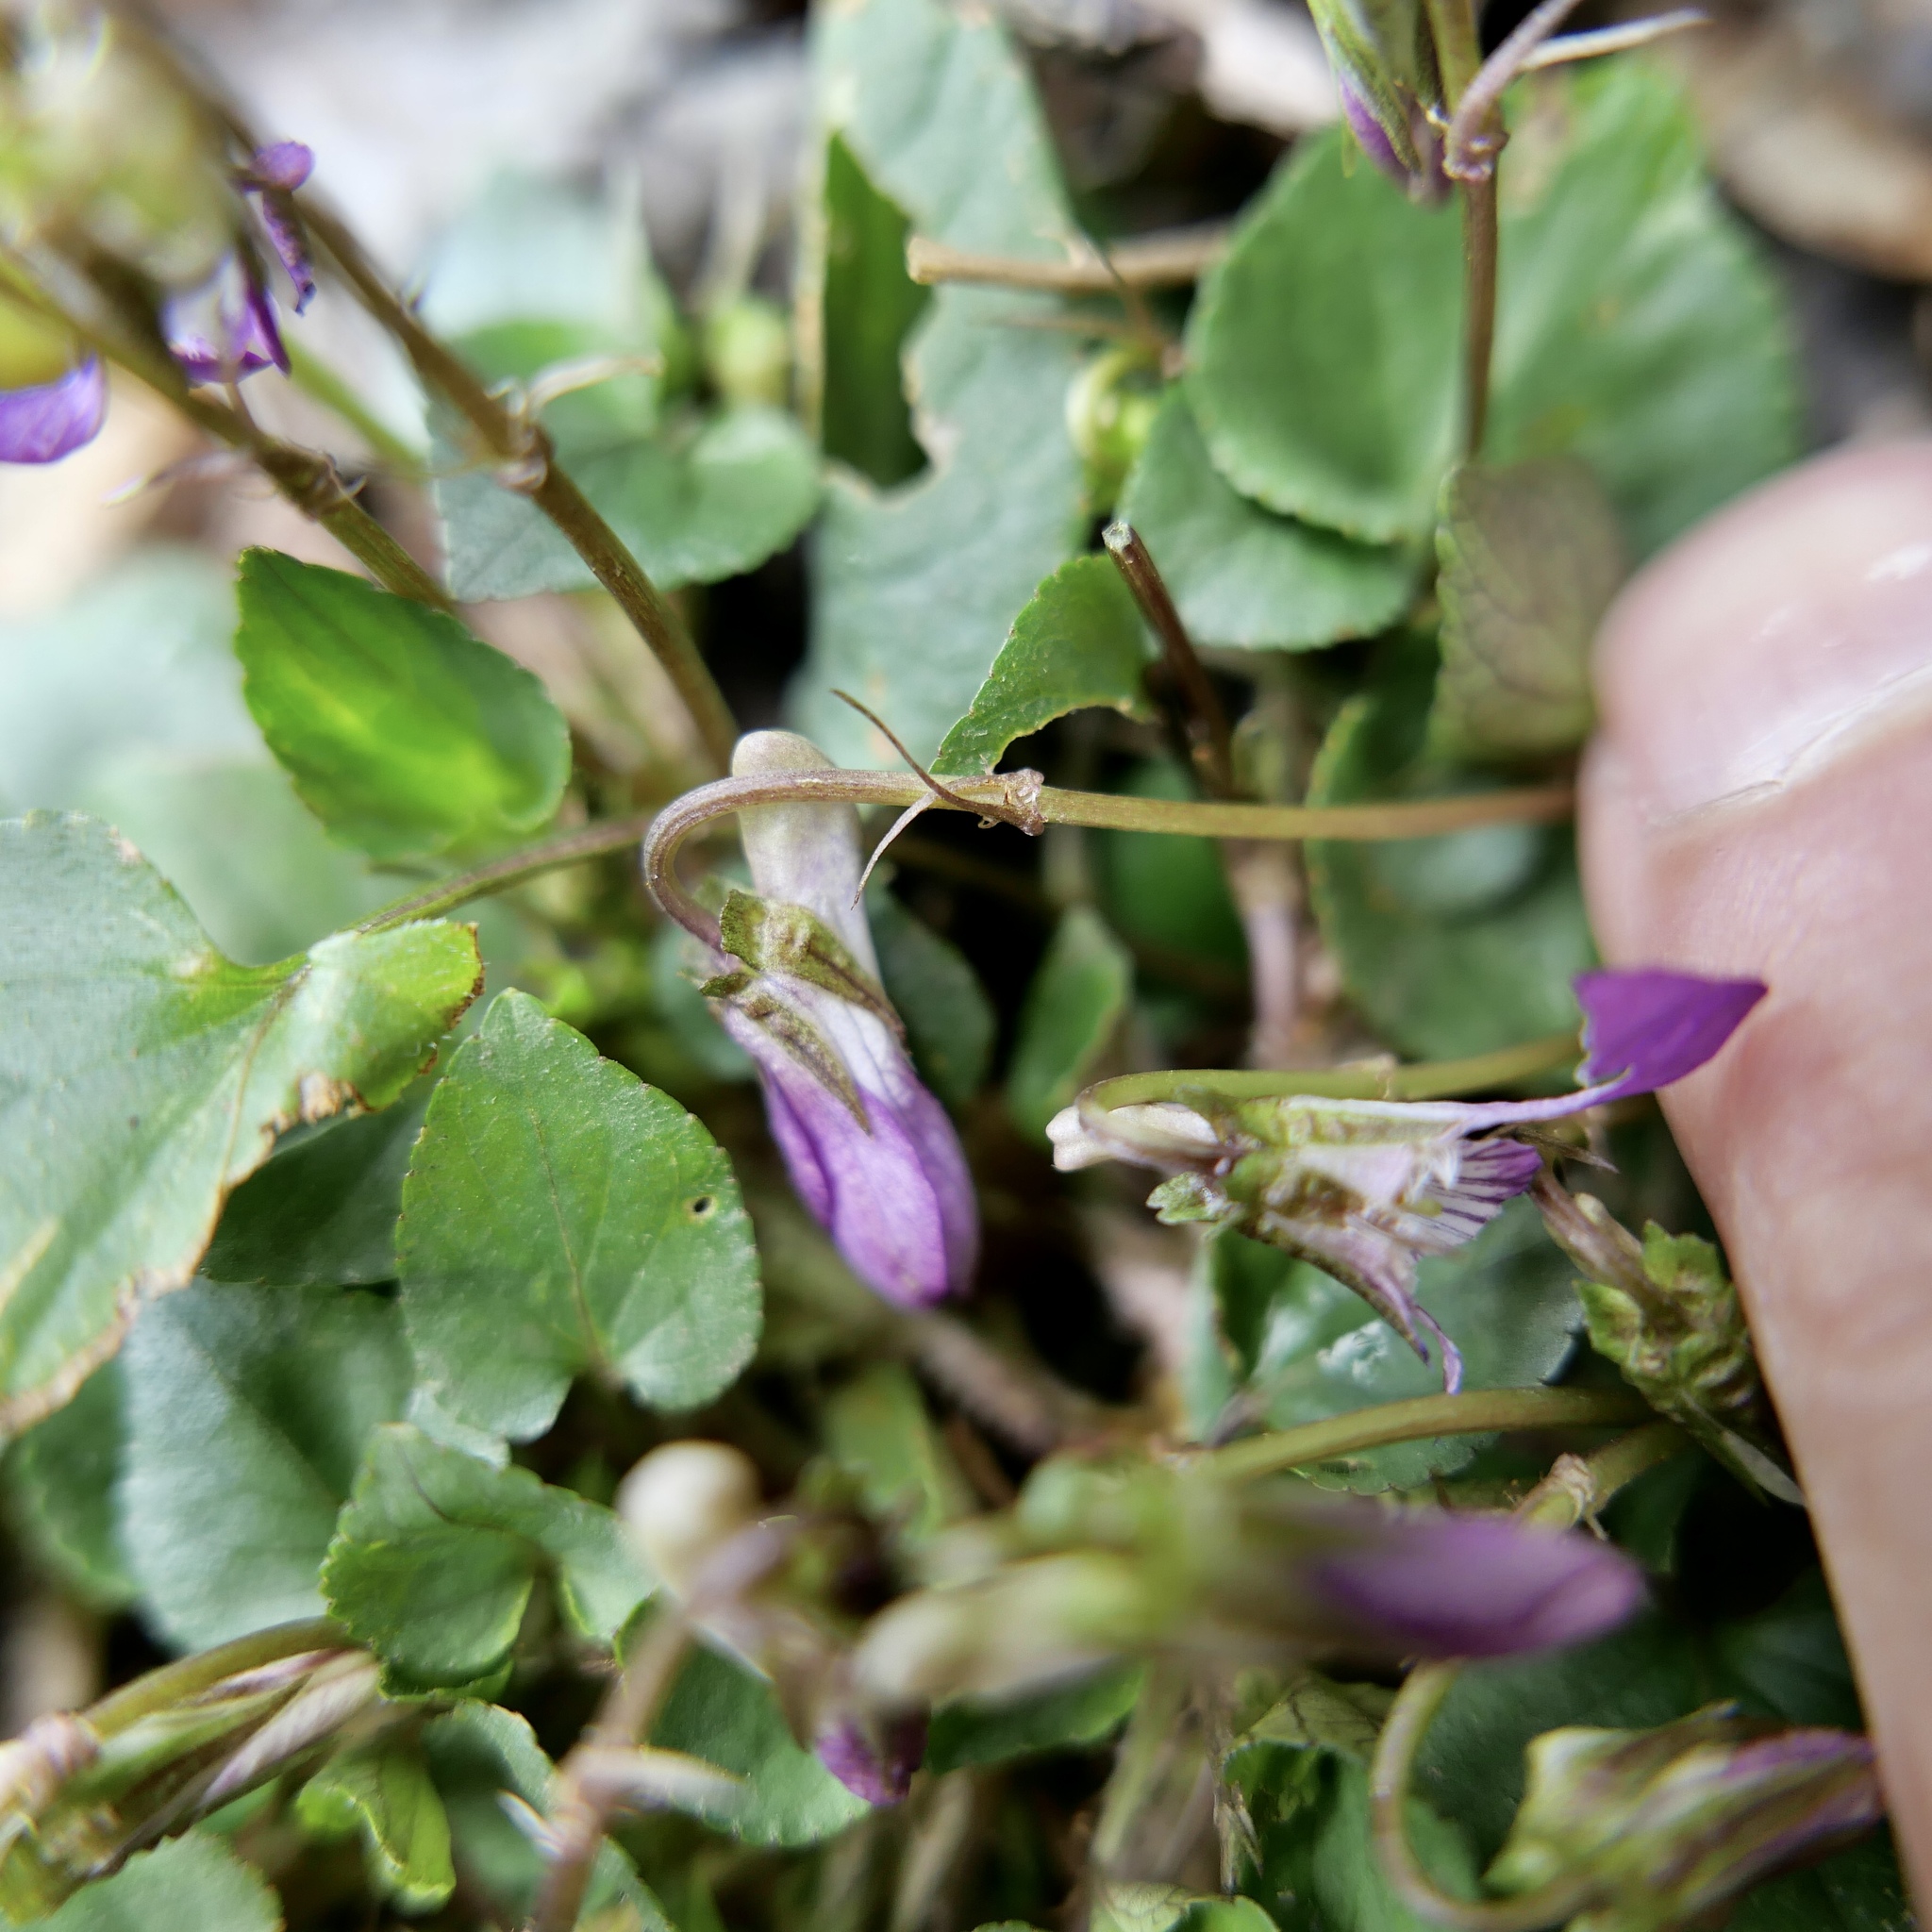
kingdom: Plantae
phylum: Tracheophyta
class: Magnoliopsida
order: Malpighiales
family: Violaceae
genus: Viola
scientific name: Viola riviniana
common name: Common dog-violet
